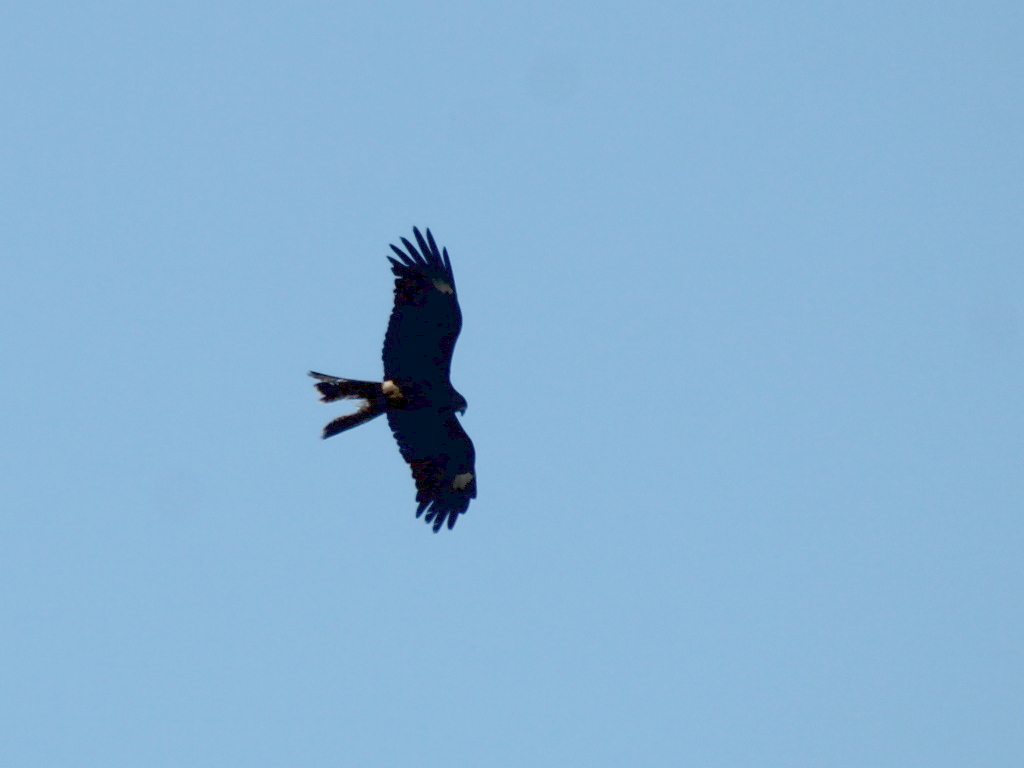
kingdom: Animalia
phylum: Chordata
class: Aves
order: Accipitriformes
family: Accipitridae
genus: Milvus
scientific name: Milvus migrans
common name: Black kite
